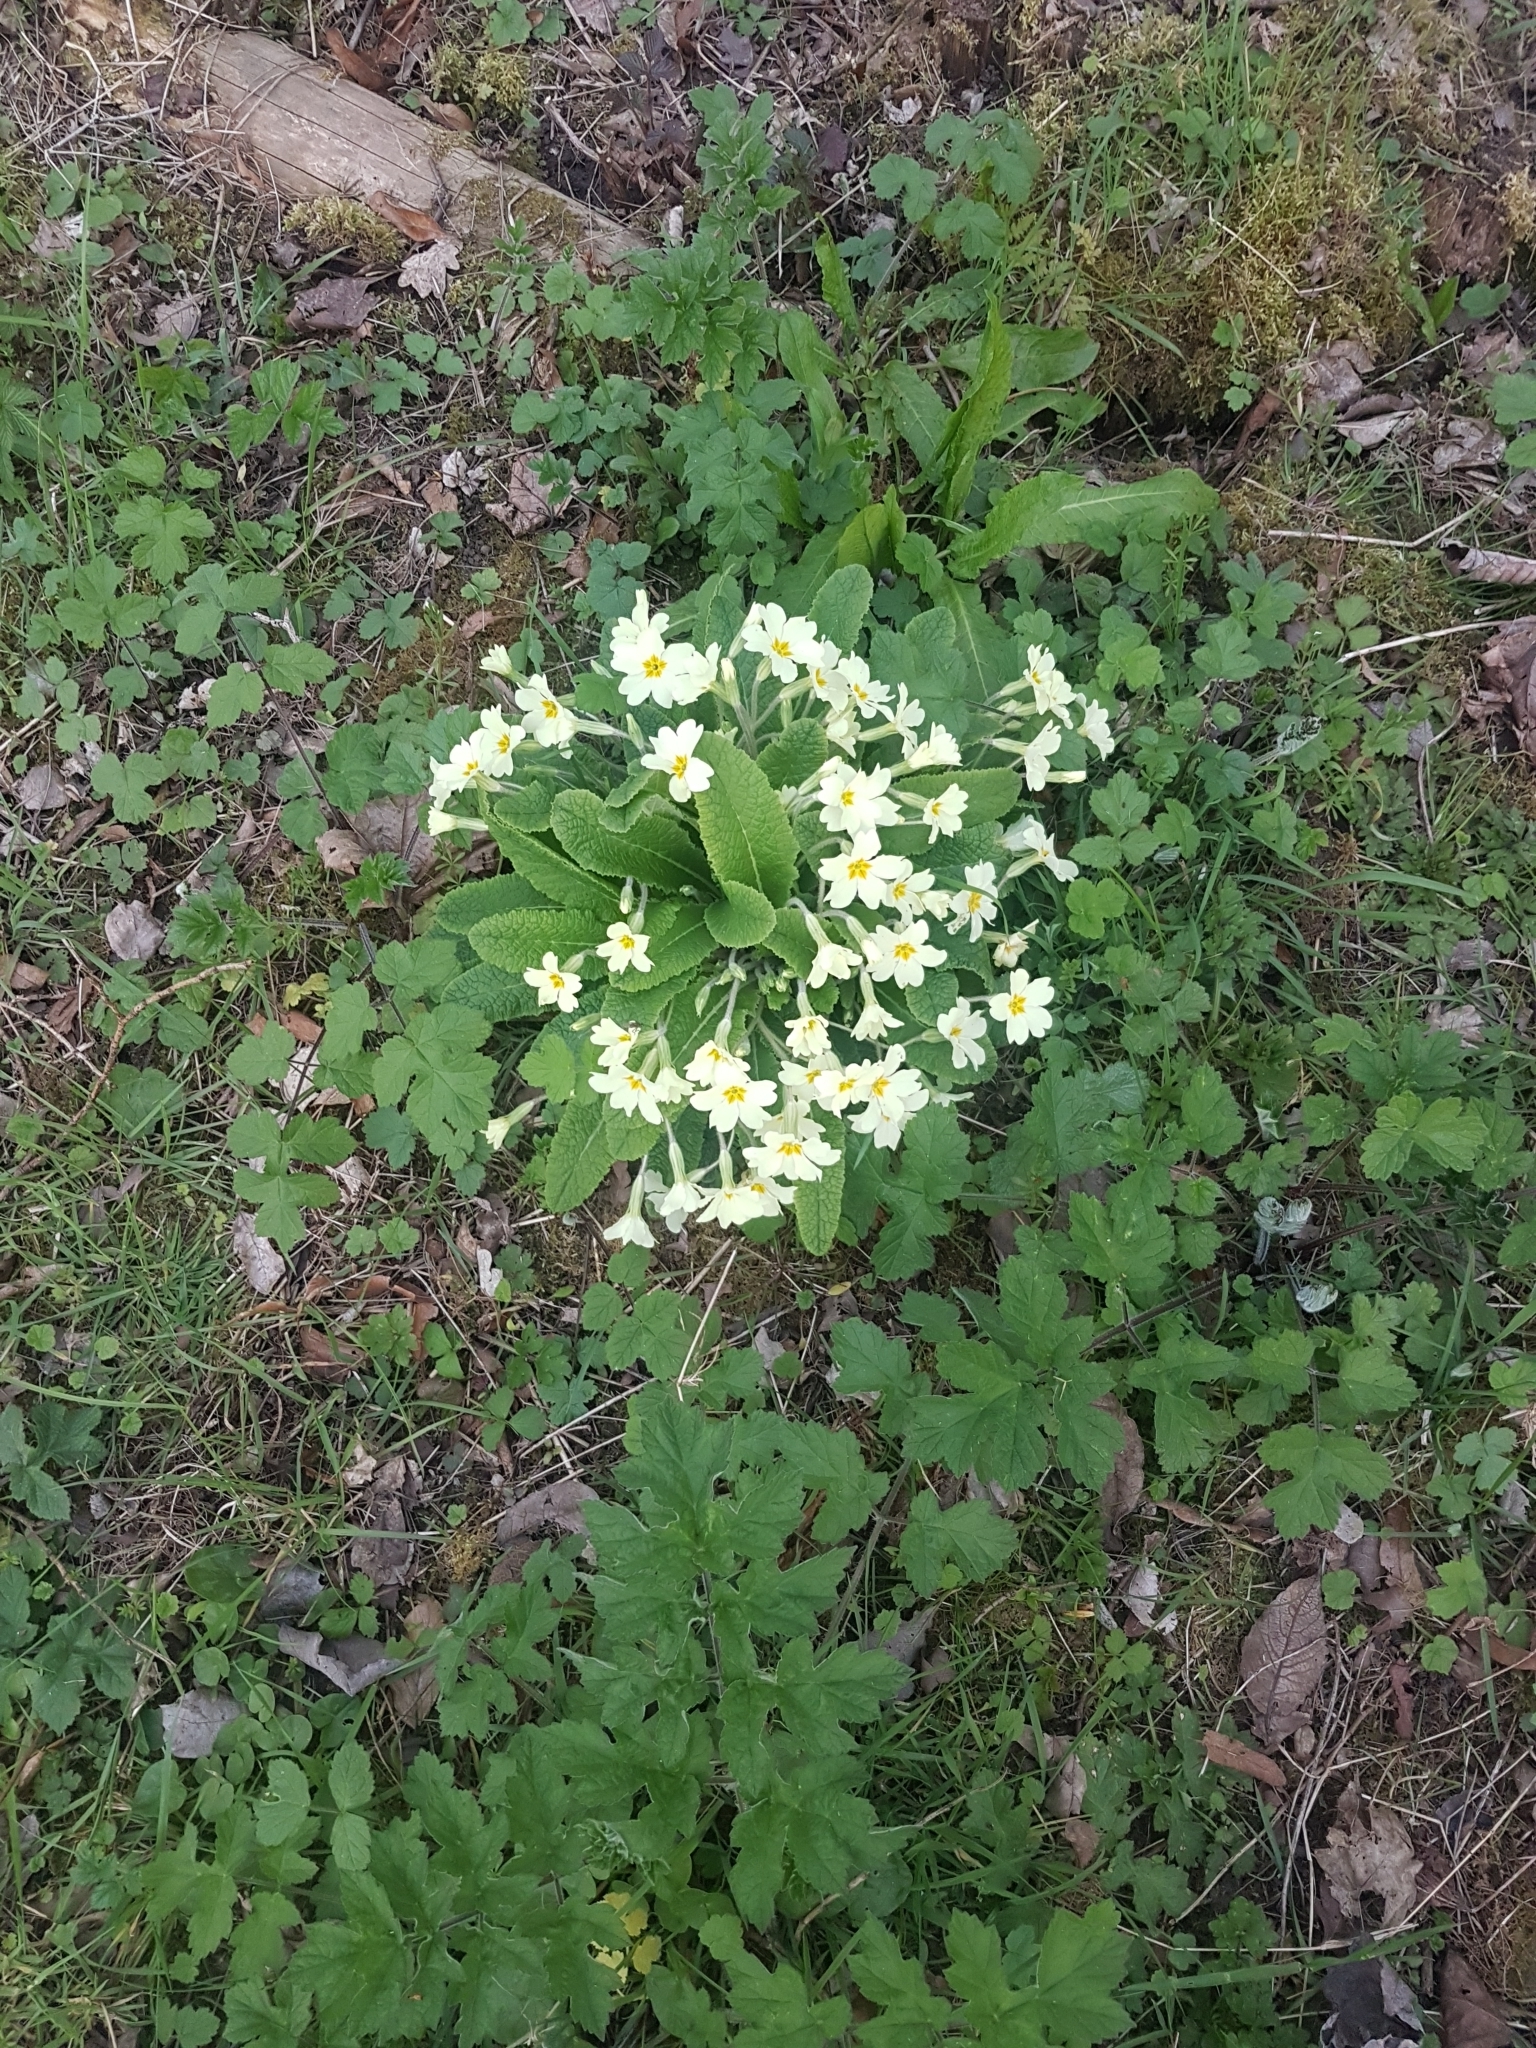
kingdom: Plantae
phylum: Tracheophyta
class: Magnoliopsida
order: Ericales
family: Primulaceae
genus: Primula
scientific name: Primula vulgaris
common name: Primrose
